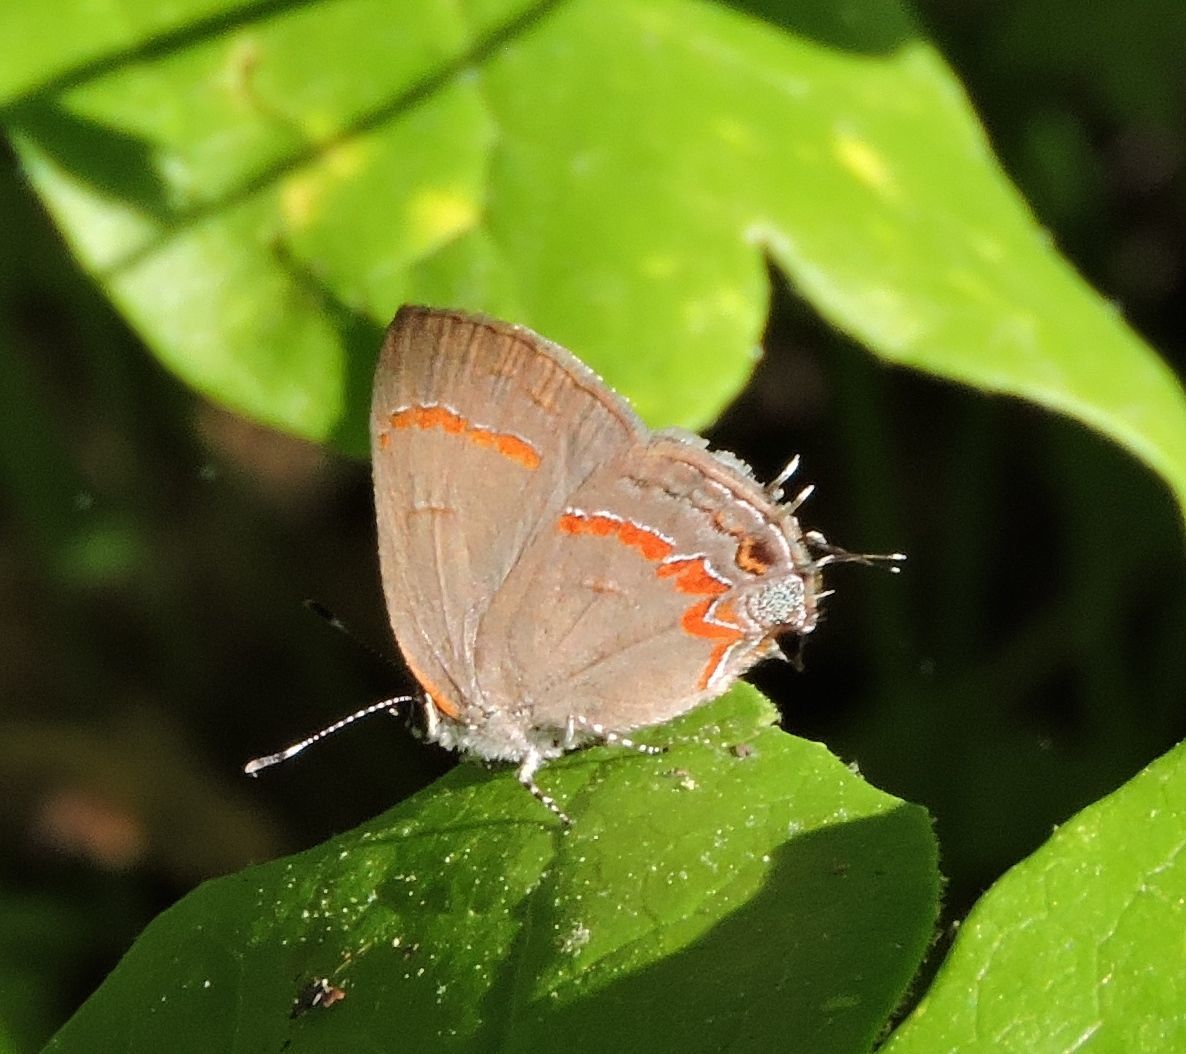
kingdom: Animalia
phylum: Arthropoda
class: Insecta
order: Lepidoptera
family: Lycaenidae
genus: Calycopis
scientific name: Calycopis cecrops
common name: Red-banded hairstreak
